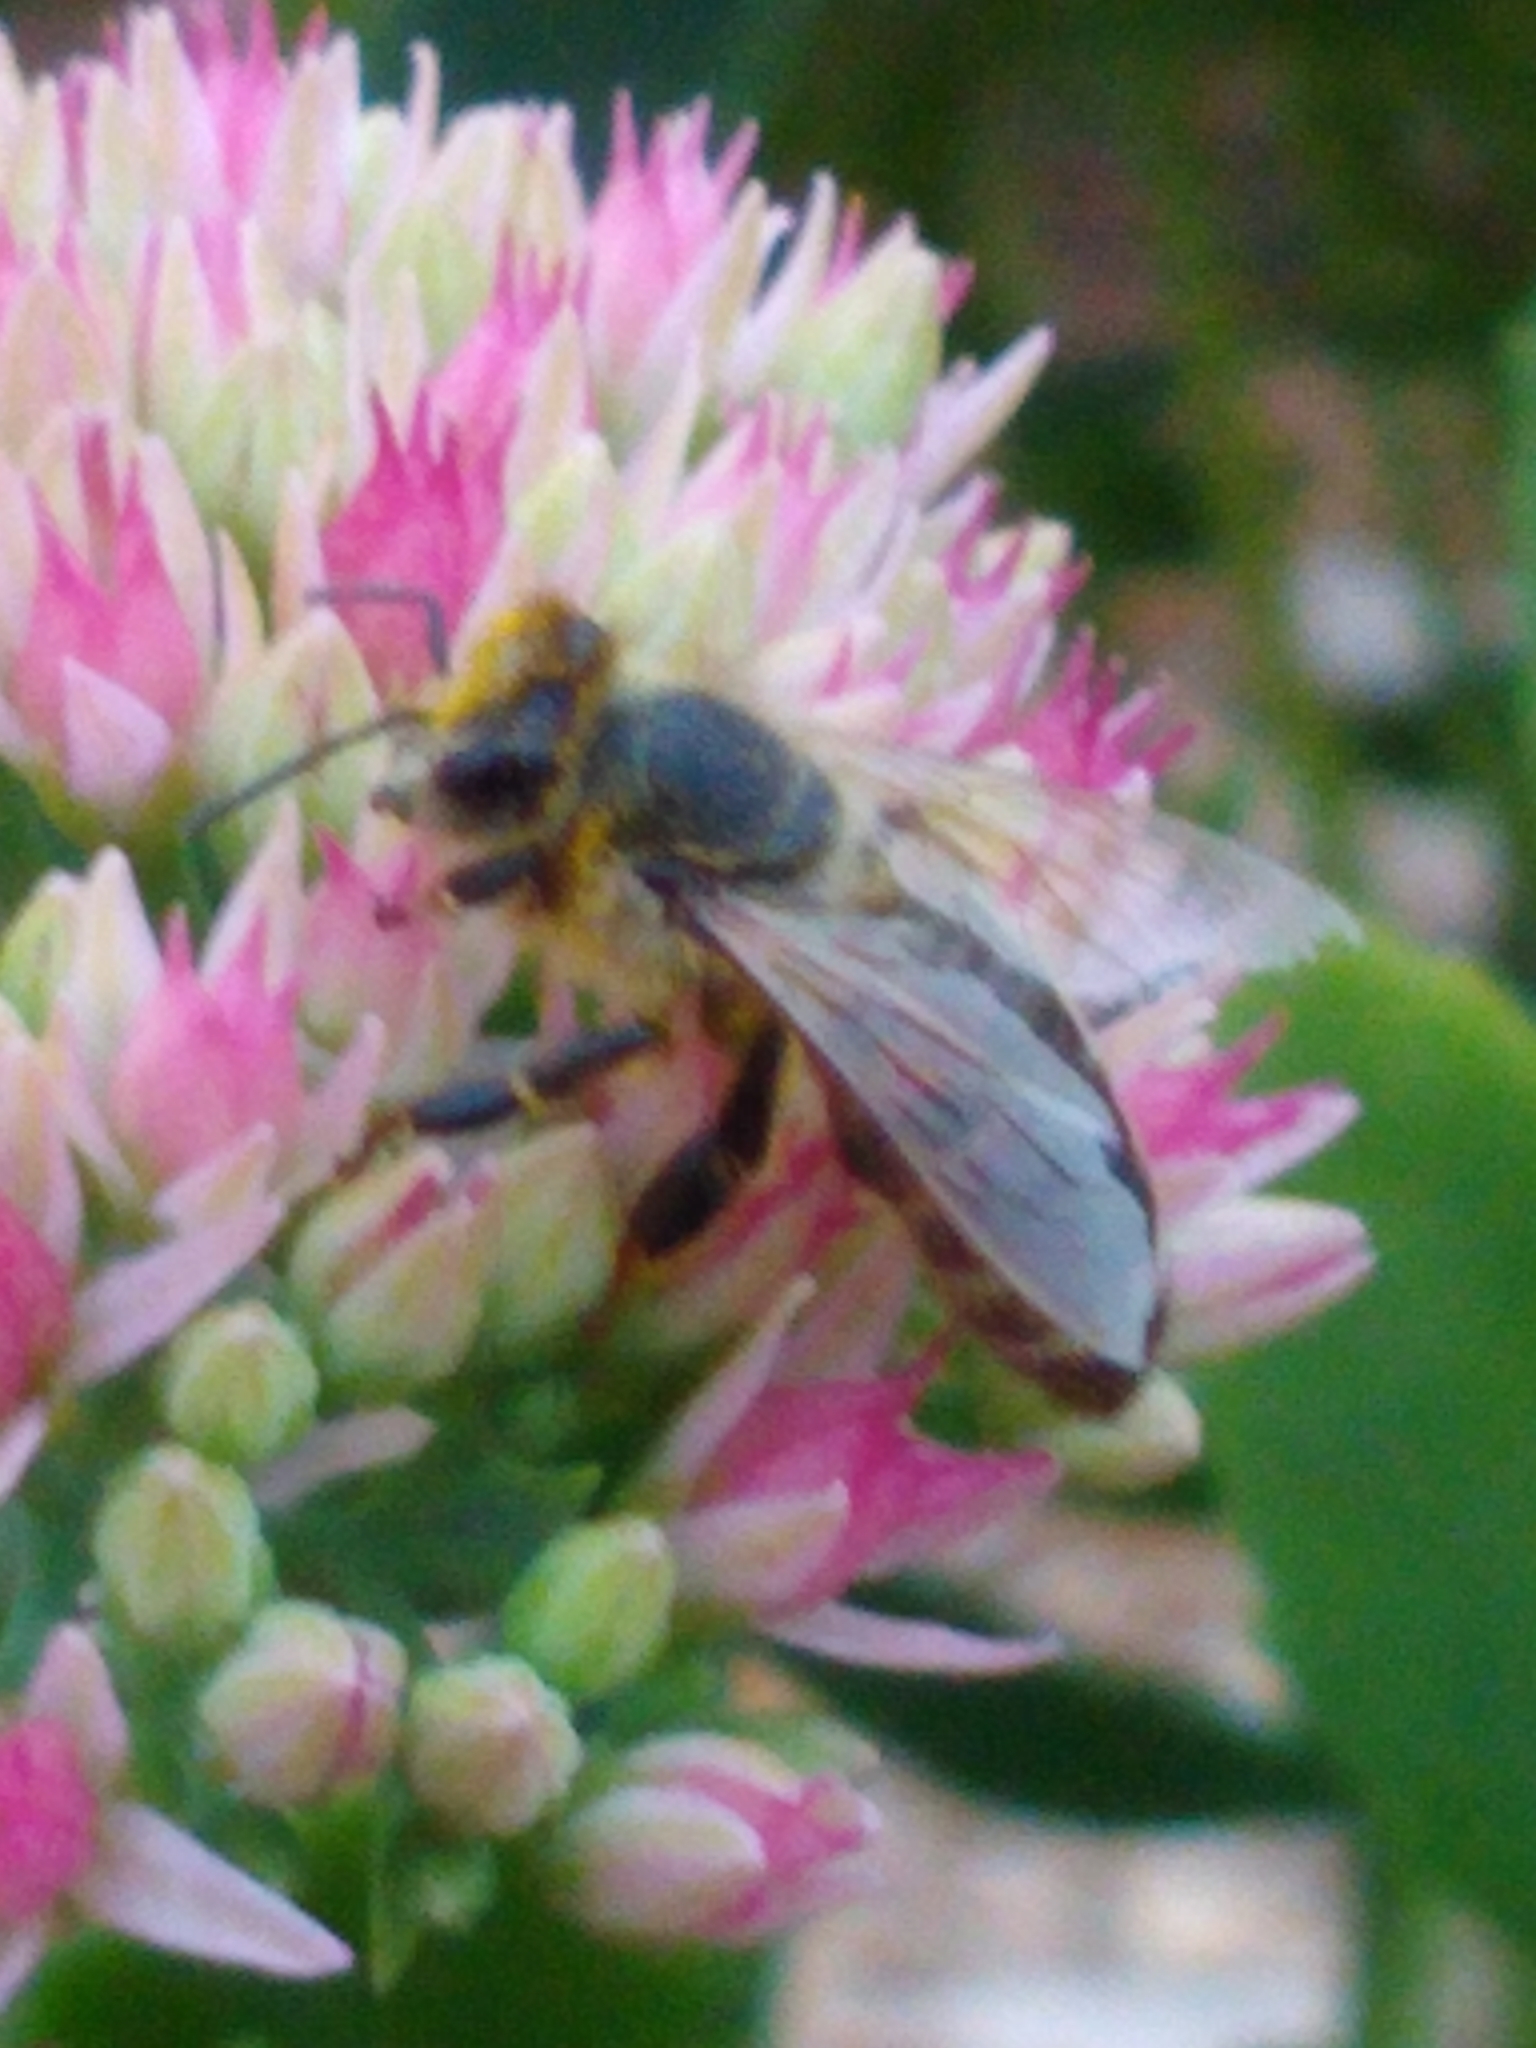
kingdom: Animalia
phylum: Arthropoda
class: Insecta
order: Hymenoptera
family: Apidae
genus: Apis
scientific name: Apis mellifera
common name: Honey bee
